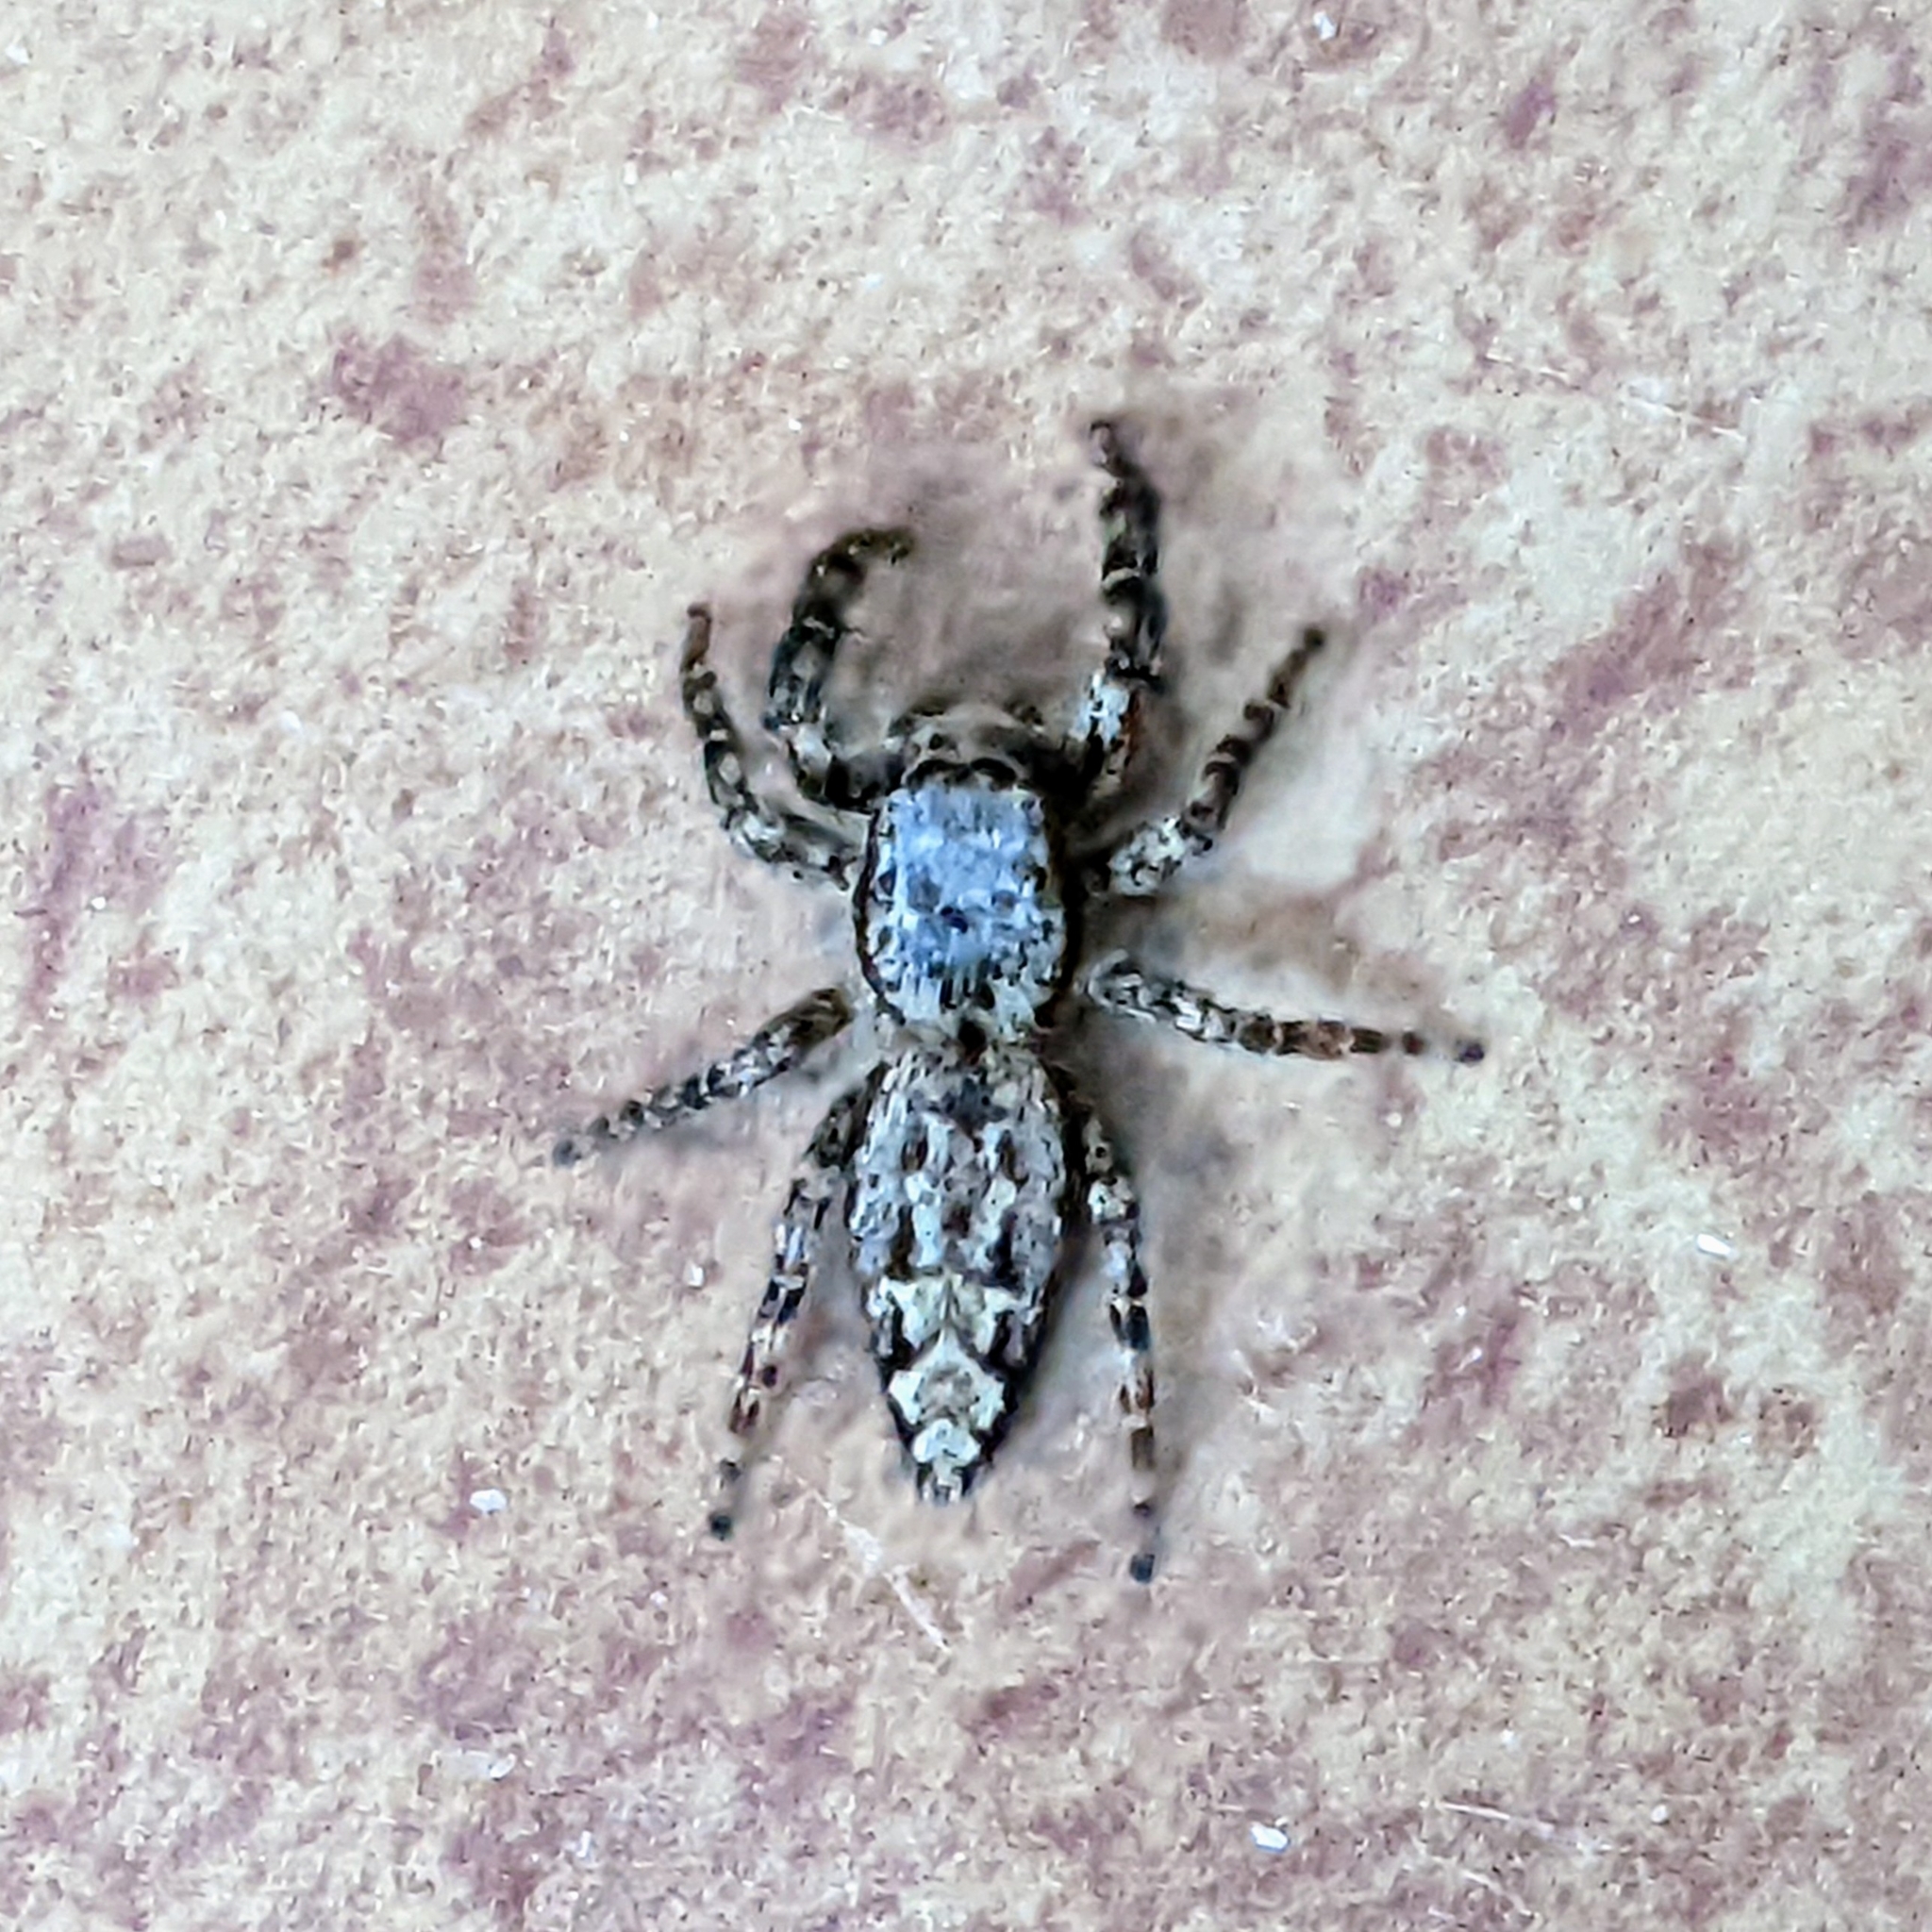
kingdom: Animalia
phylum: Arthropoda
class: Arachnida
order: Araneae
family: Salticidae
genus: Marpissa
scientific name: Marpissa muscosa
